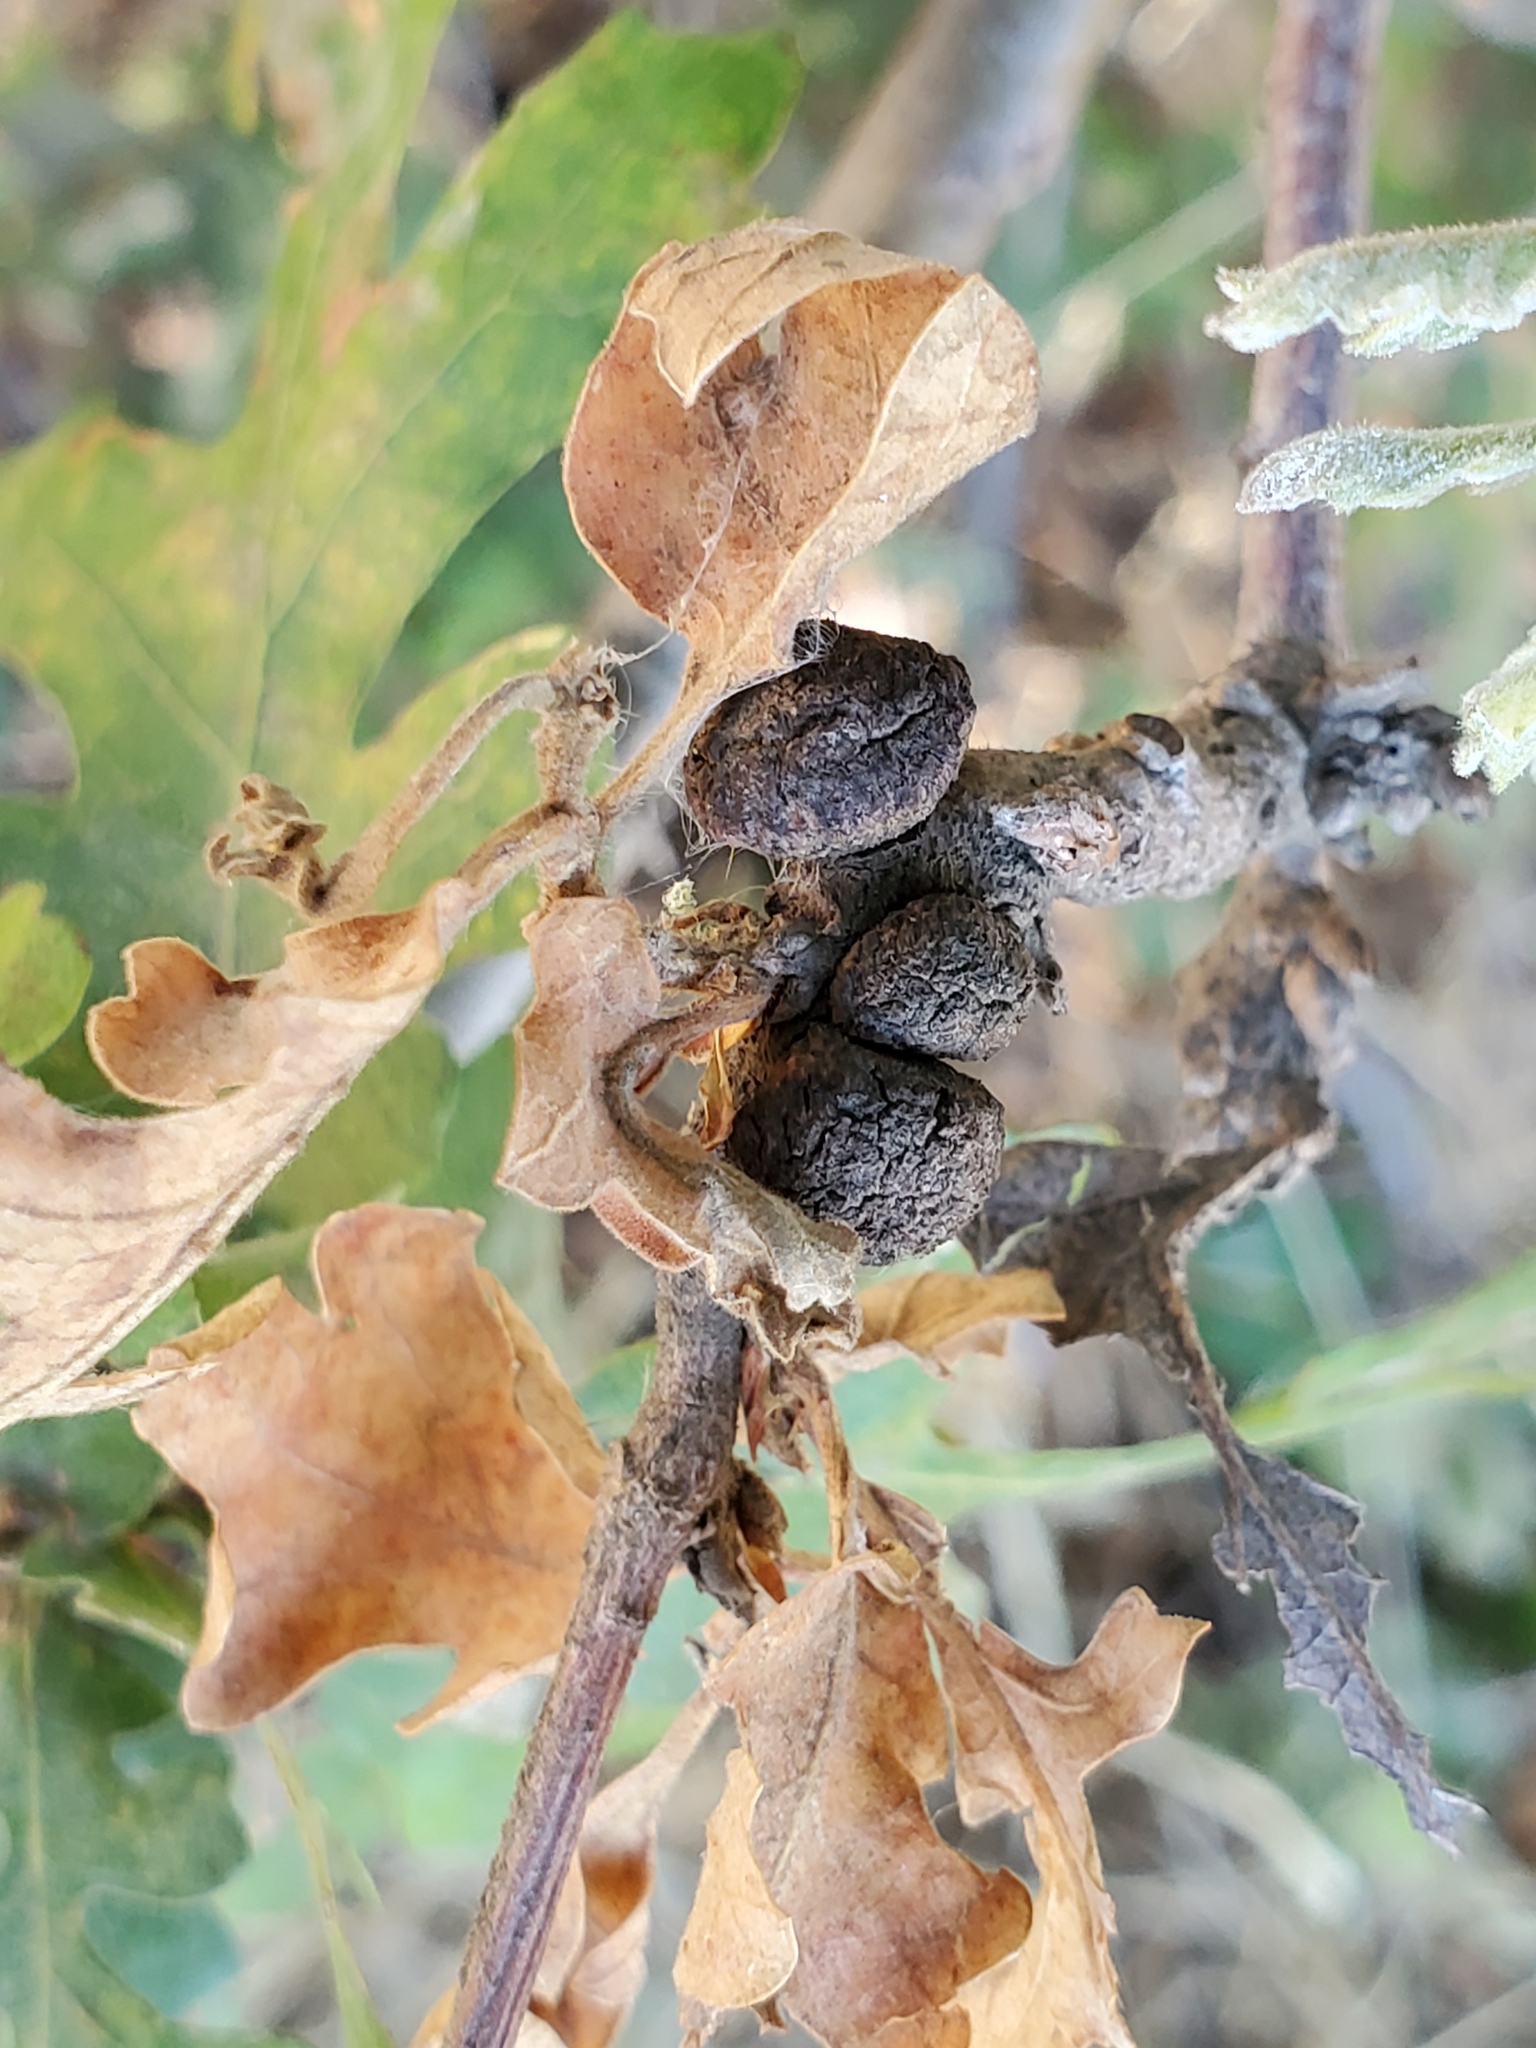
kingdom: Animalia
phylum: Arthropoda
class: Insecta
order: Hymenoptera
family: Cynipidae
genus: Disholcaspis
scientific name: Disholcaspis
